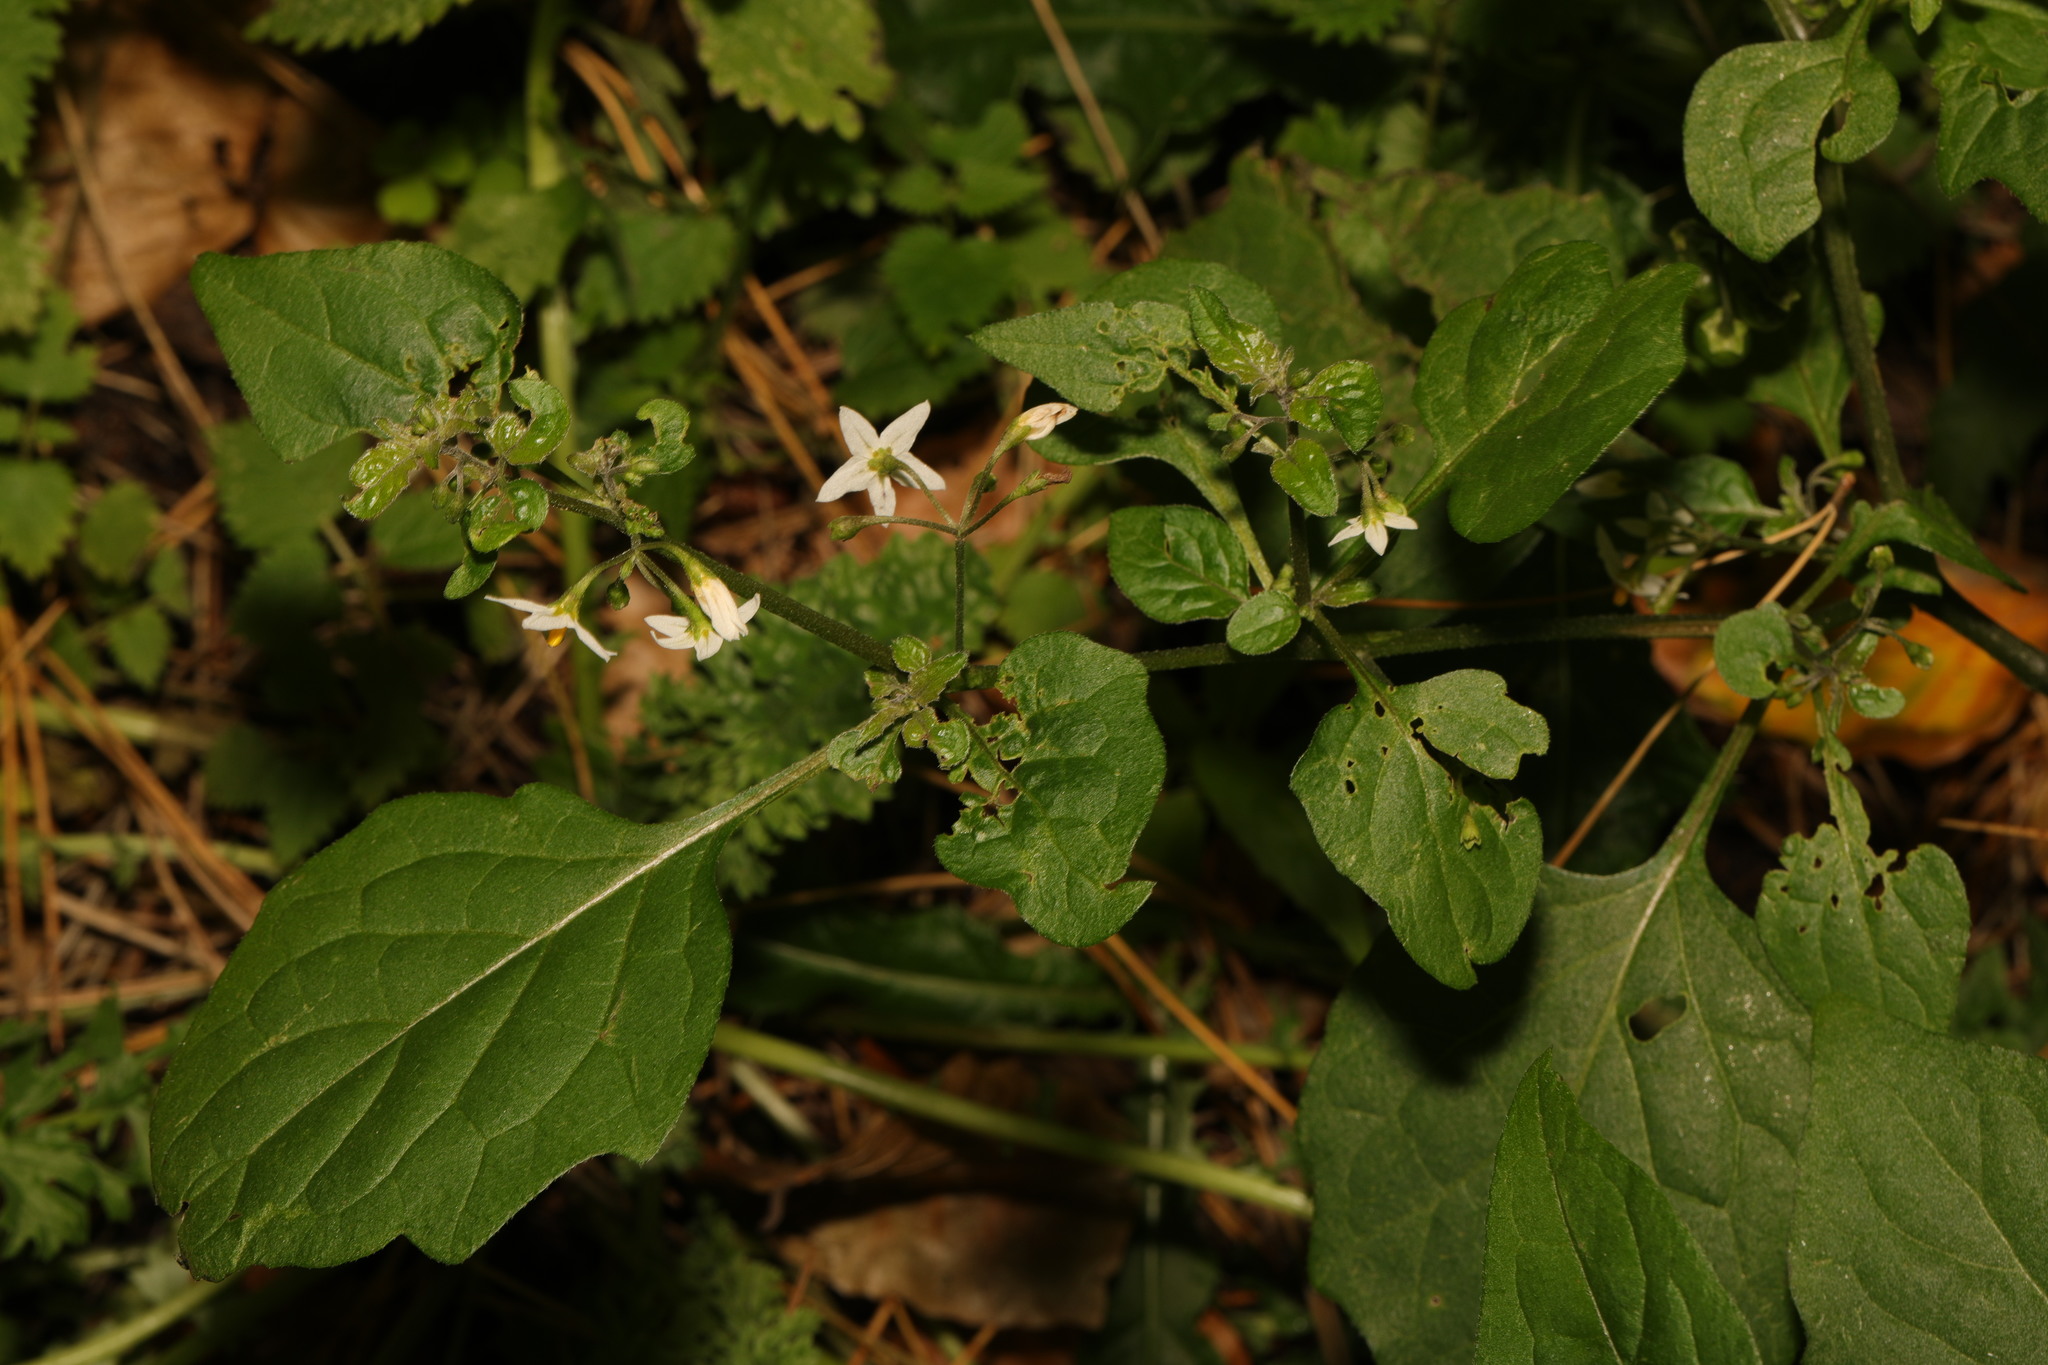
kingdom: Plantae
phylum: Tracheophyta
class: Magnoliopsida
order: Solanales
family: Solanaceae
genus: Solanum
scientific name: Solanum nigrum
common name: Black nightshade
